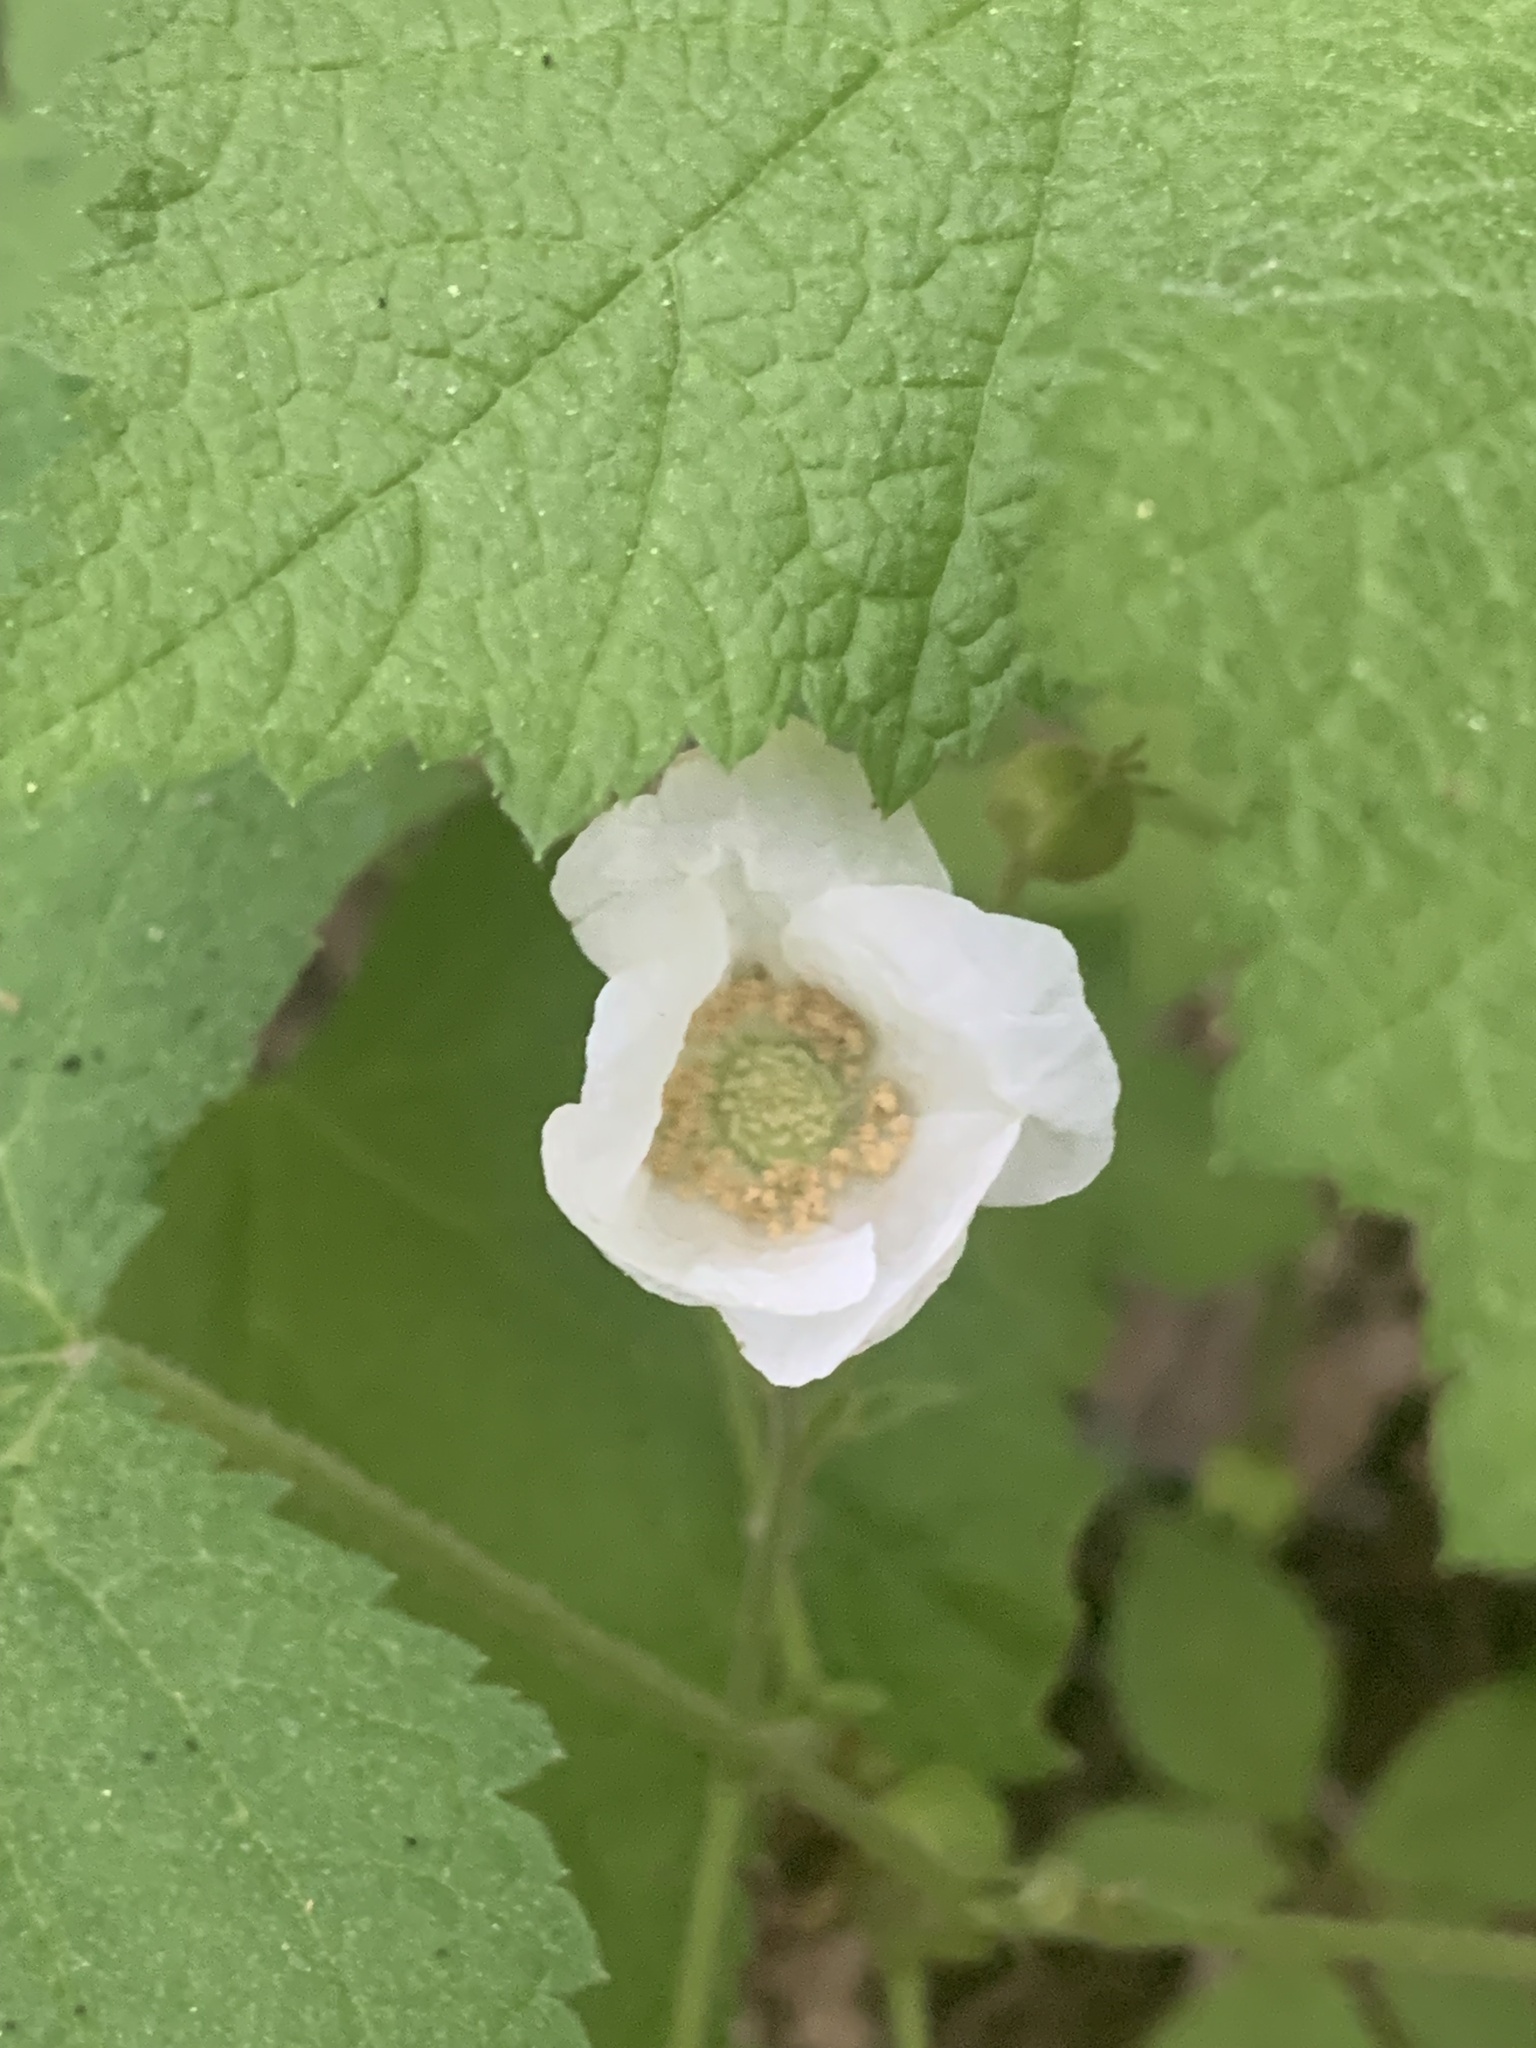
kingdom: Plantae
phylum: Tracheophyta
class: Magnoliopsida
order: Rosales
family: Rosaceae
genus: Rubus
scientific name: Rubus parviflorus
